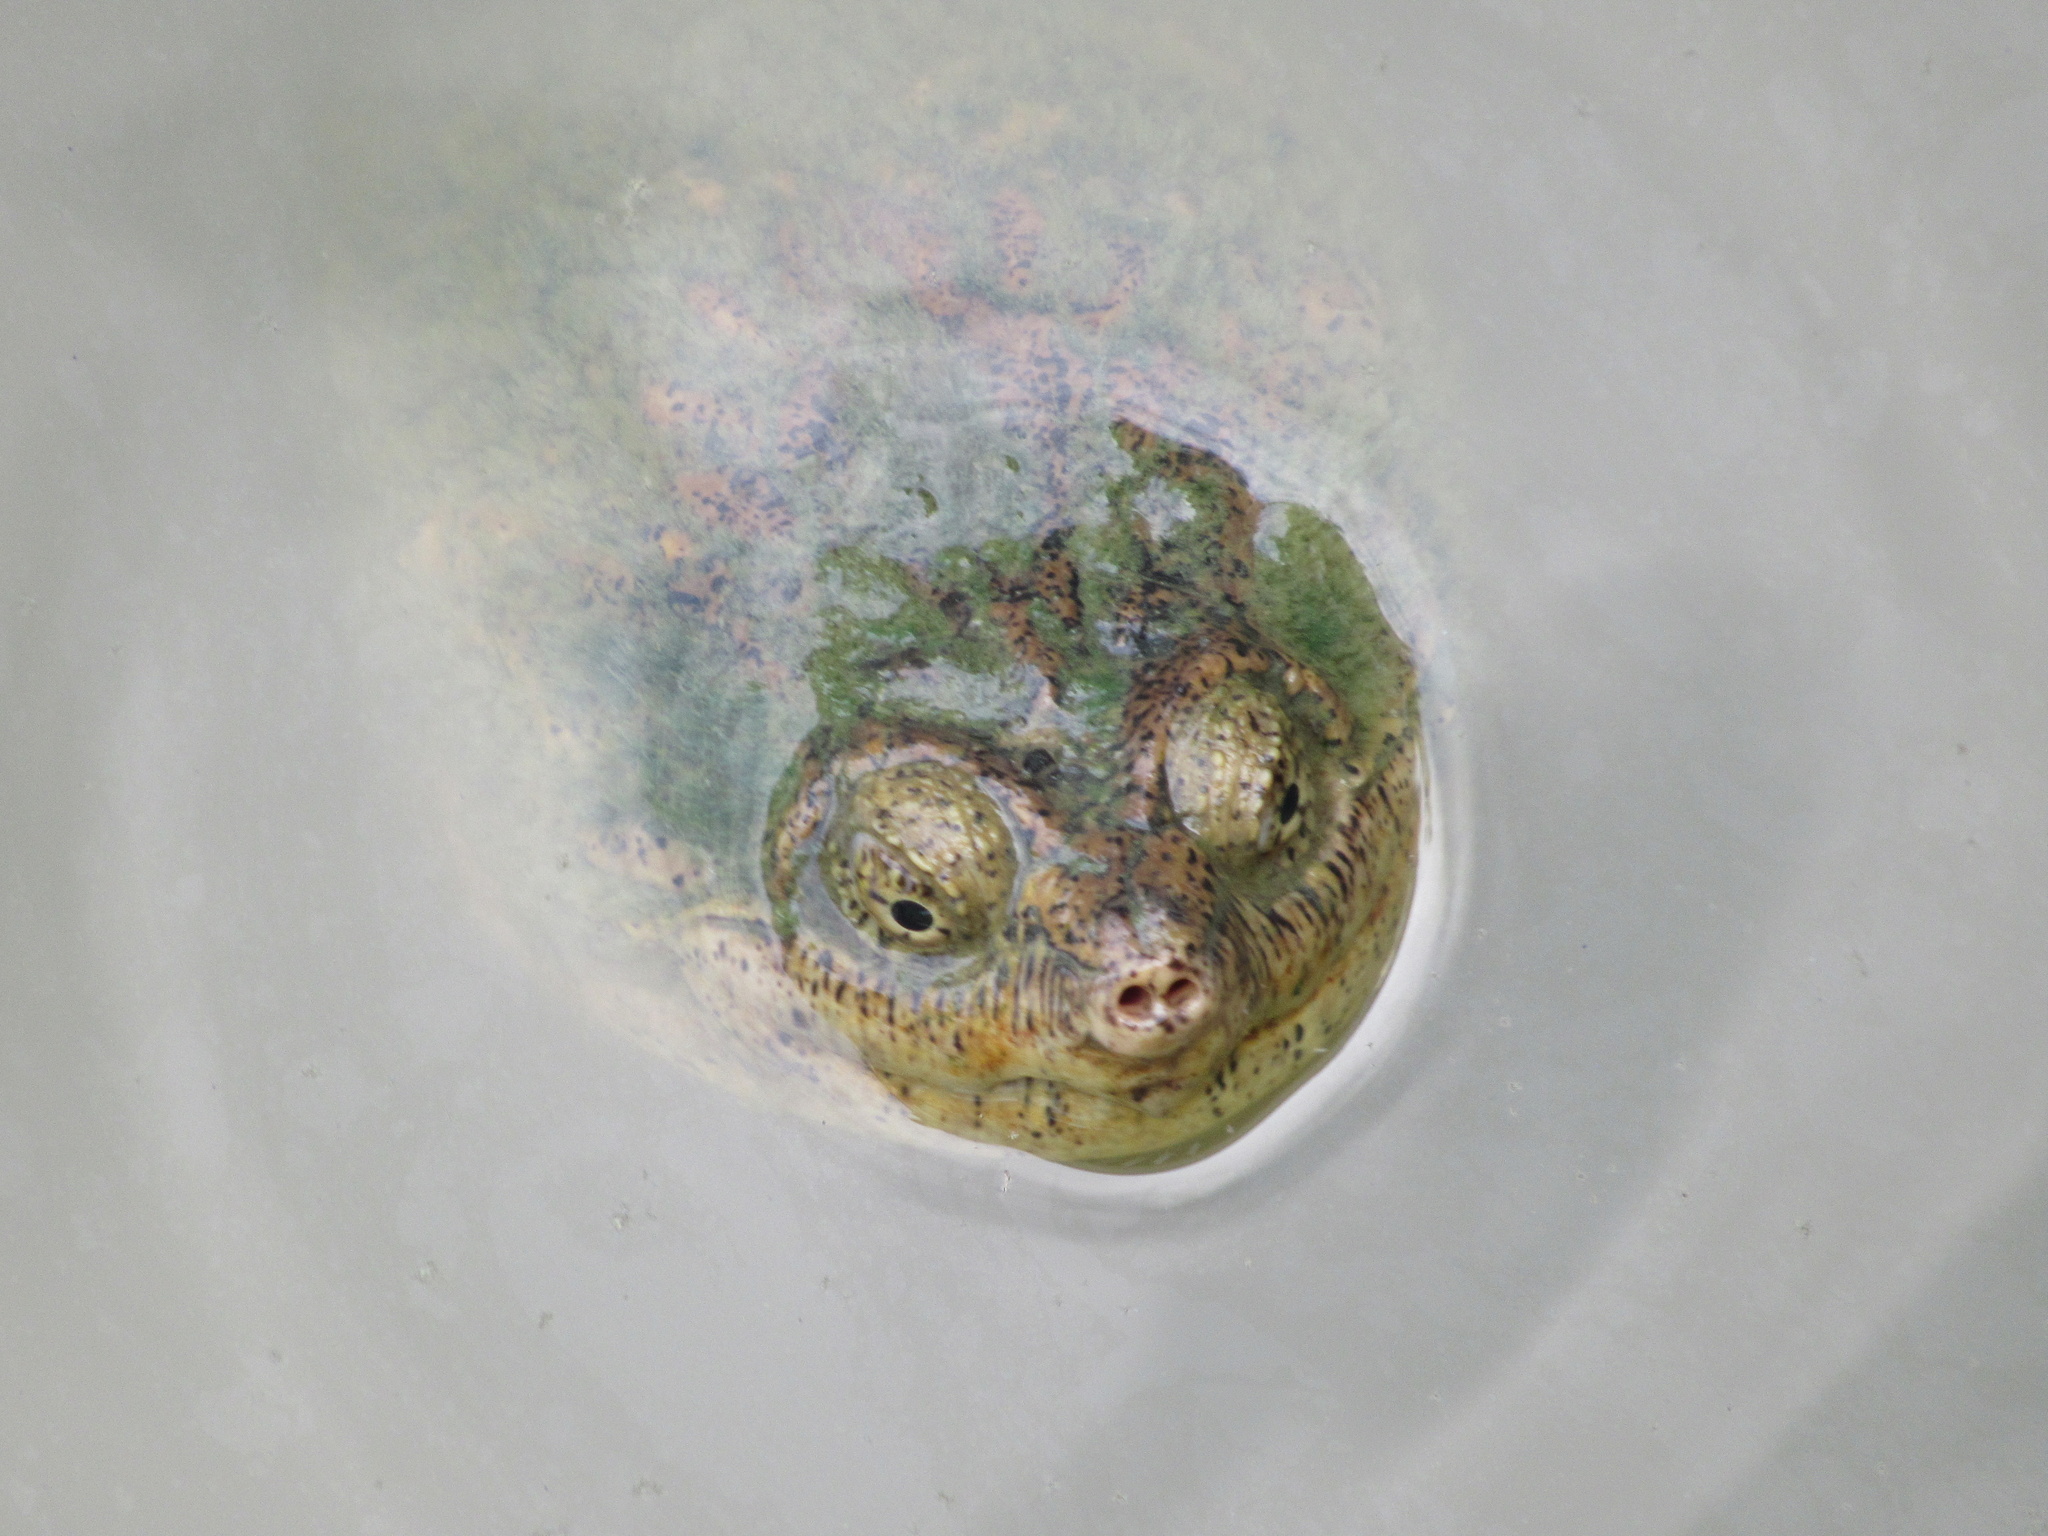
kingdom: Animalia
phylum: Chordata
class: Testudines
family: Chelydridae
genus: Chelydra
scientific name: Chelydra serpentina
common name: Common snapping turtle
